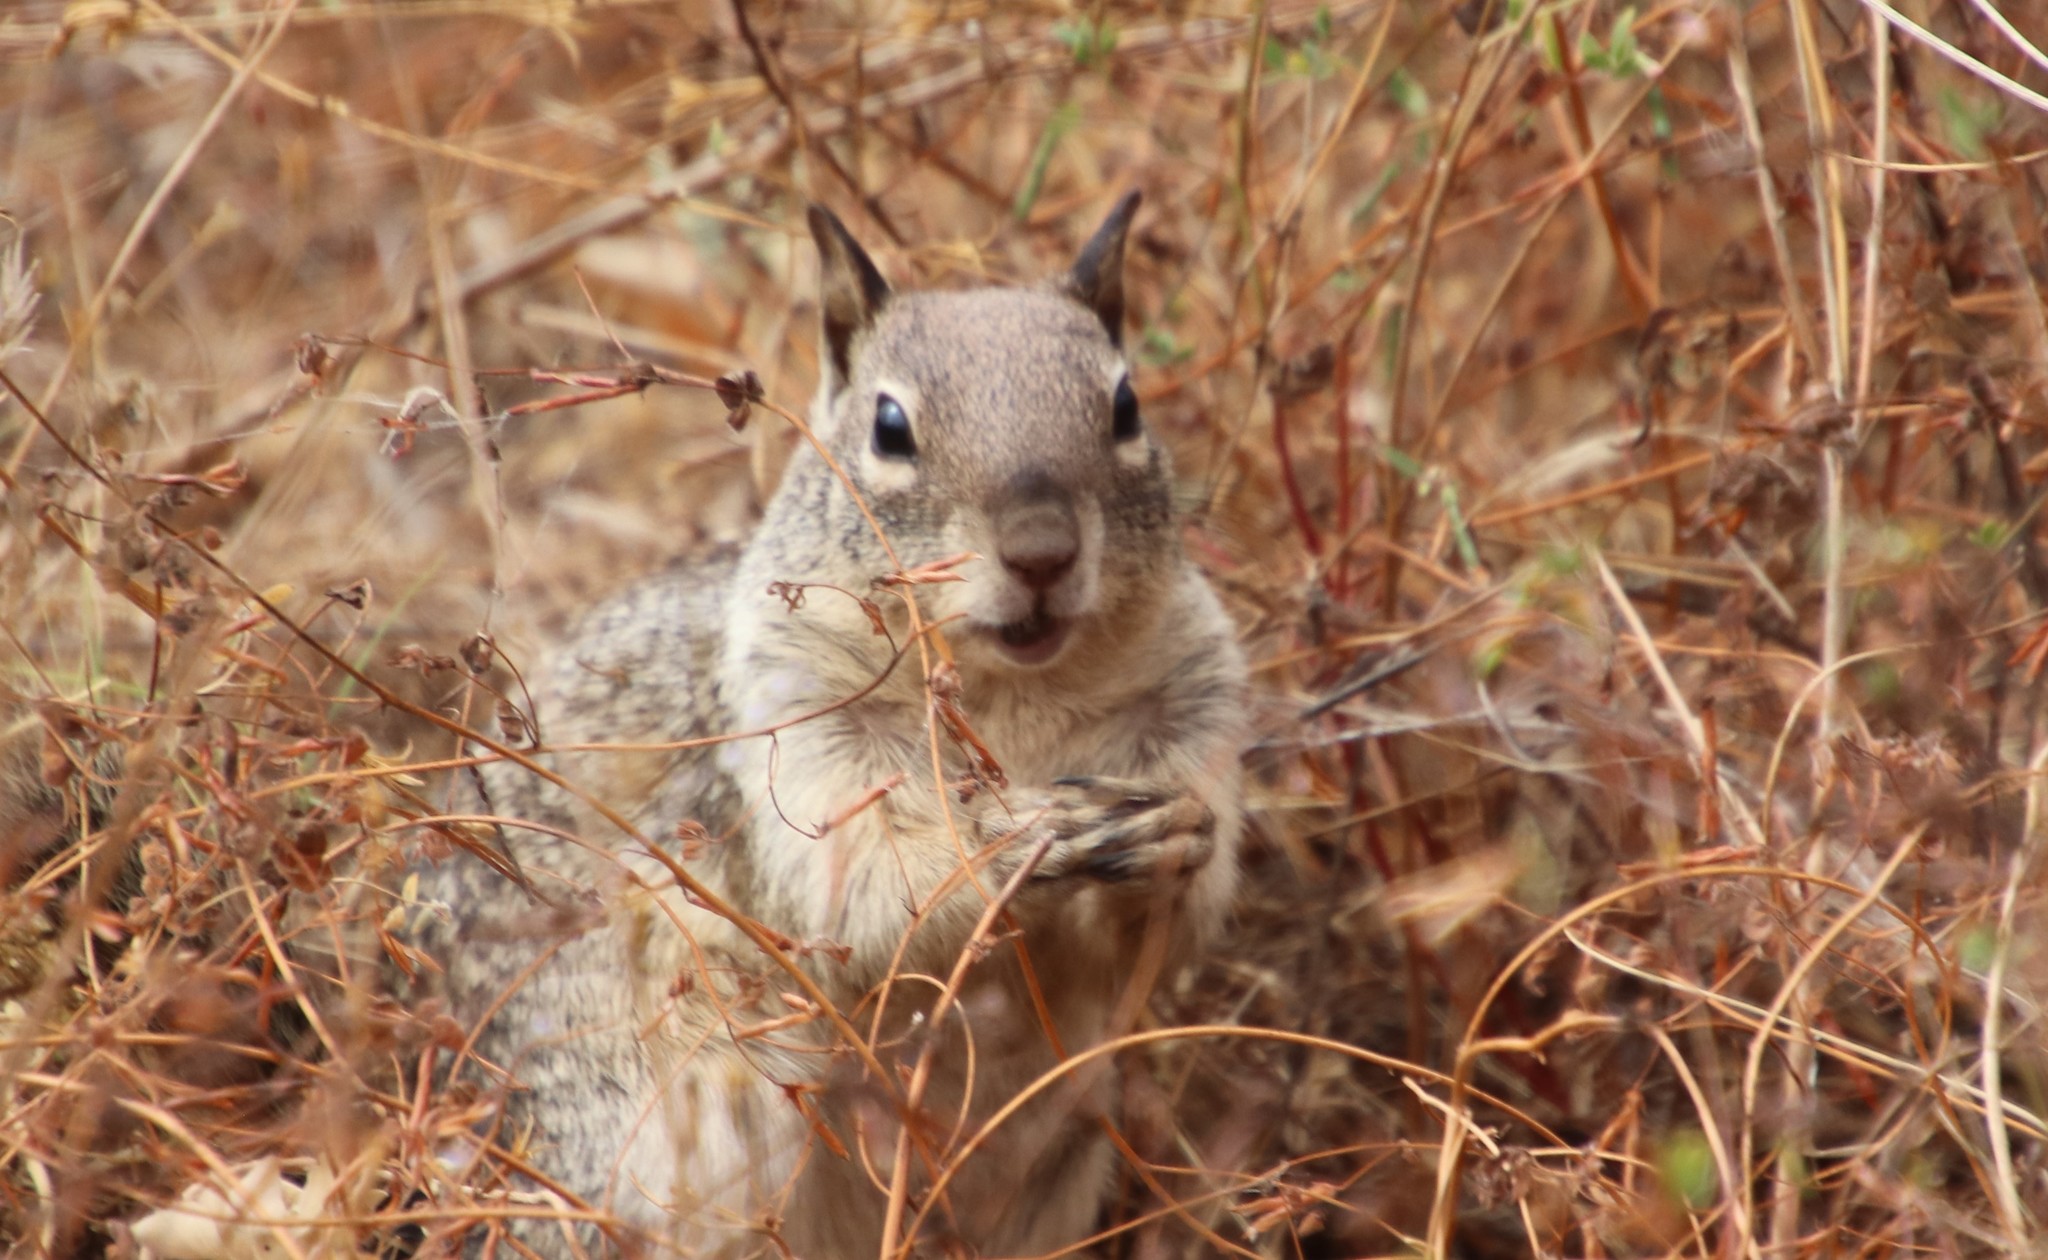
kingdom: Animalia
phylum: Chordata
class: Mammalia
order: Rodentia
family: Sciuridae
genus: Otospermophilus
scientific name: Otospermophilus beecheyi
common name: California ground squirrel
